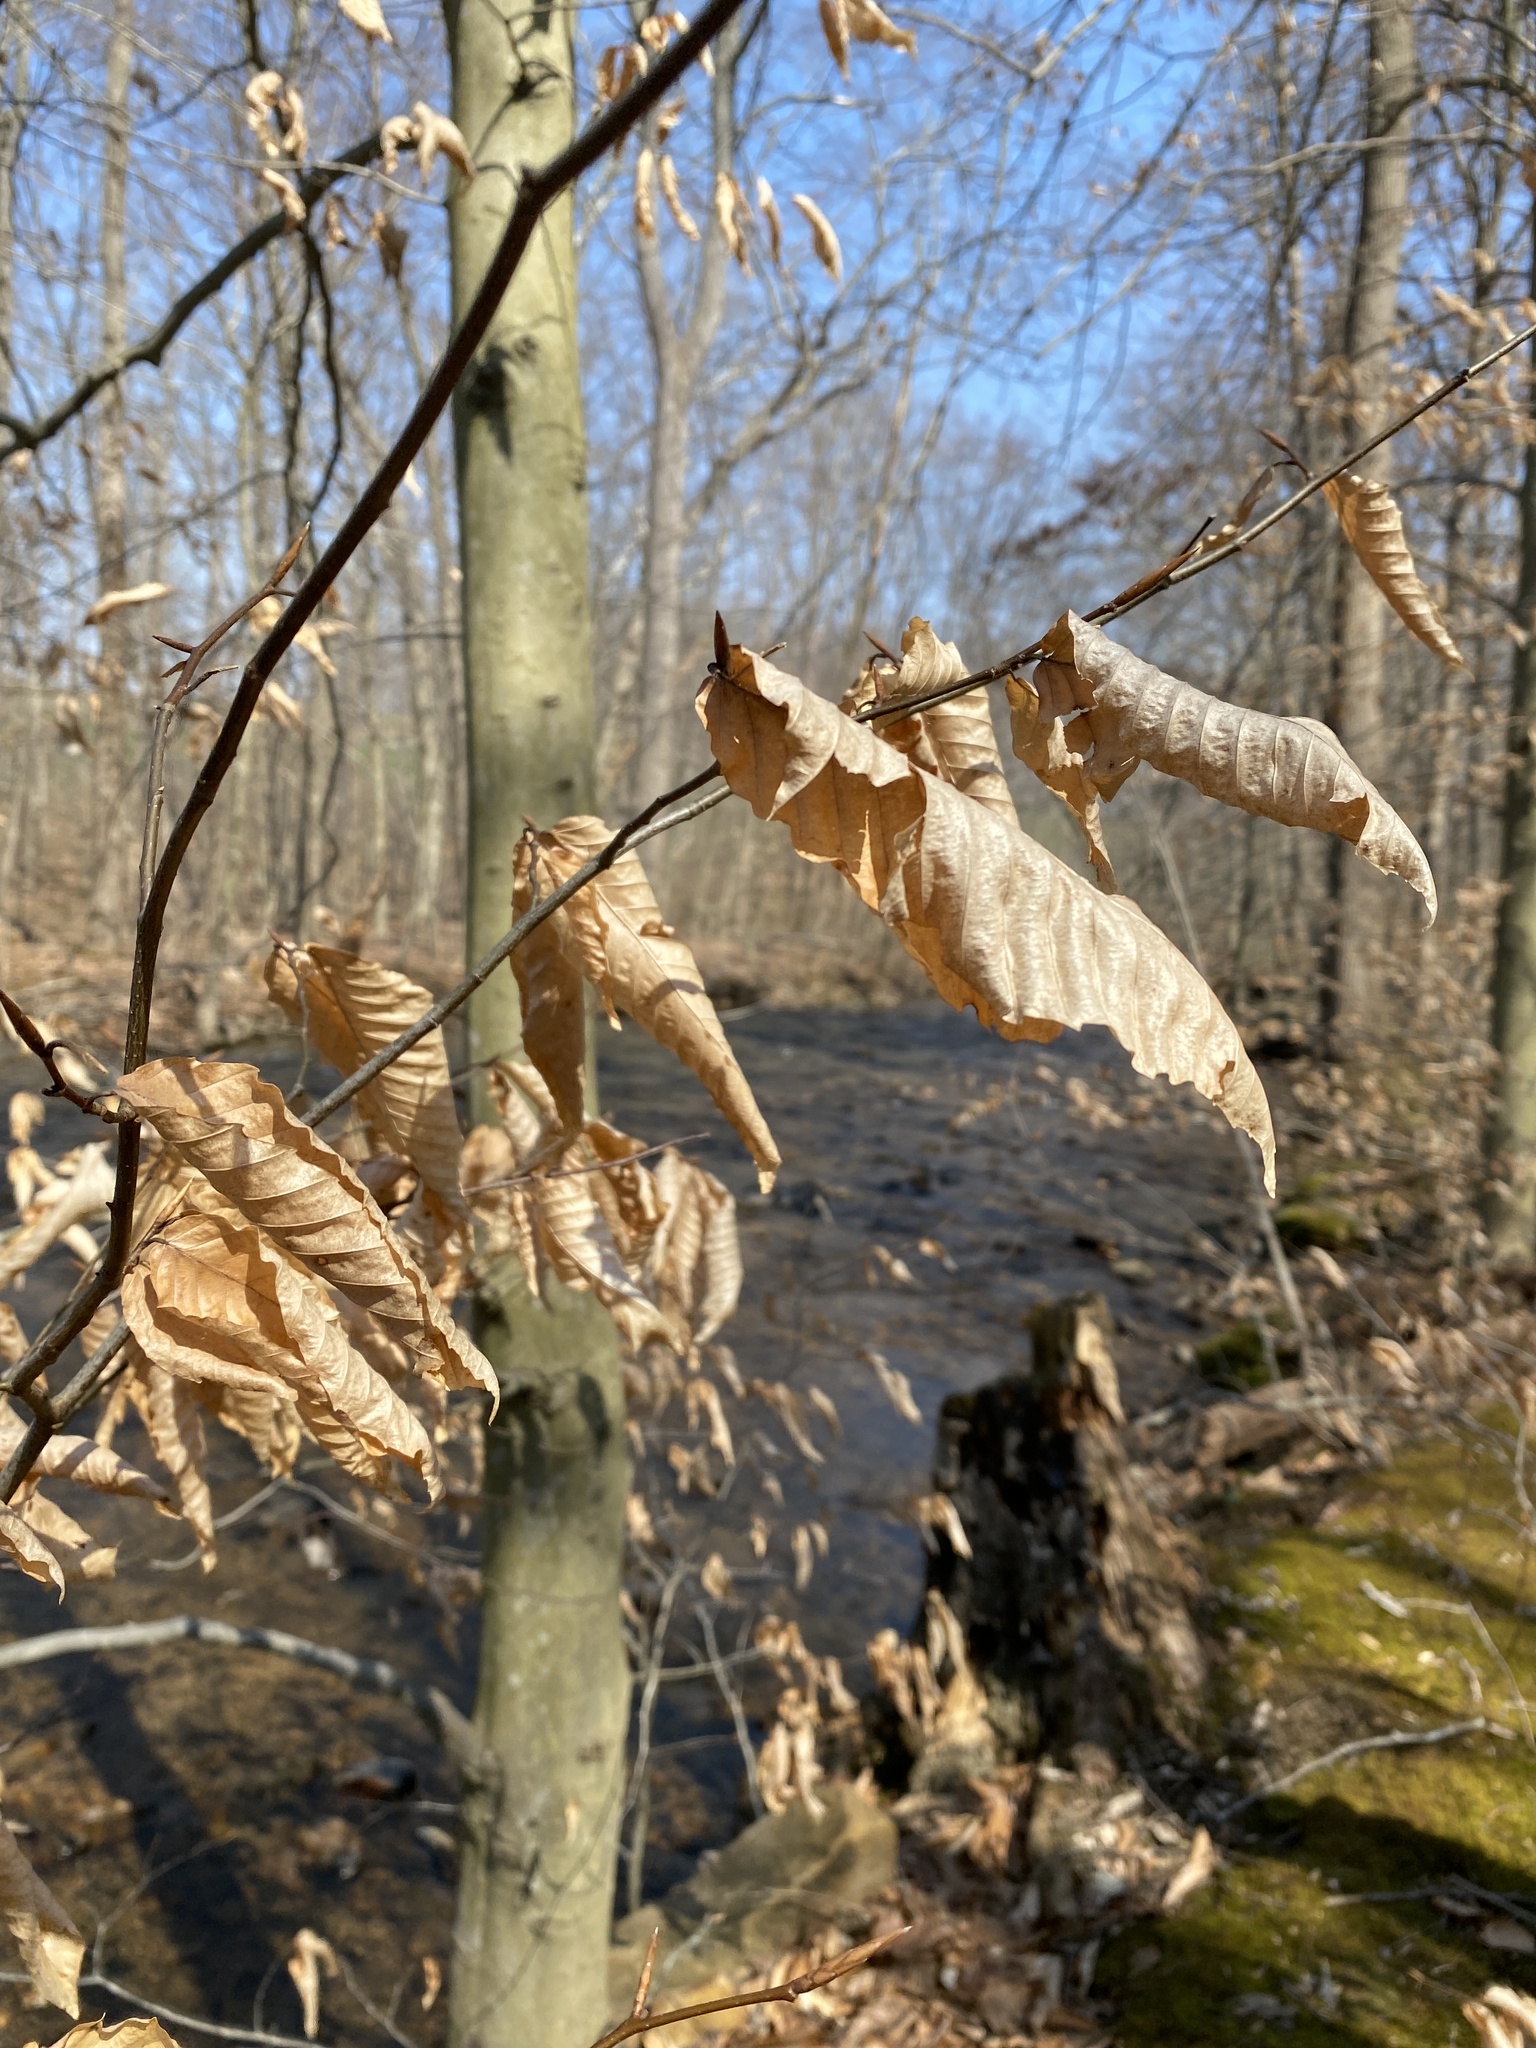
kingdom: Plantae
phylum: Tracheophyta
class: Magnoliopsida
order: Fagales
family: Fagaceae
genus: Fagus
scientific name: Fagus grandifolia
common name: American beech
